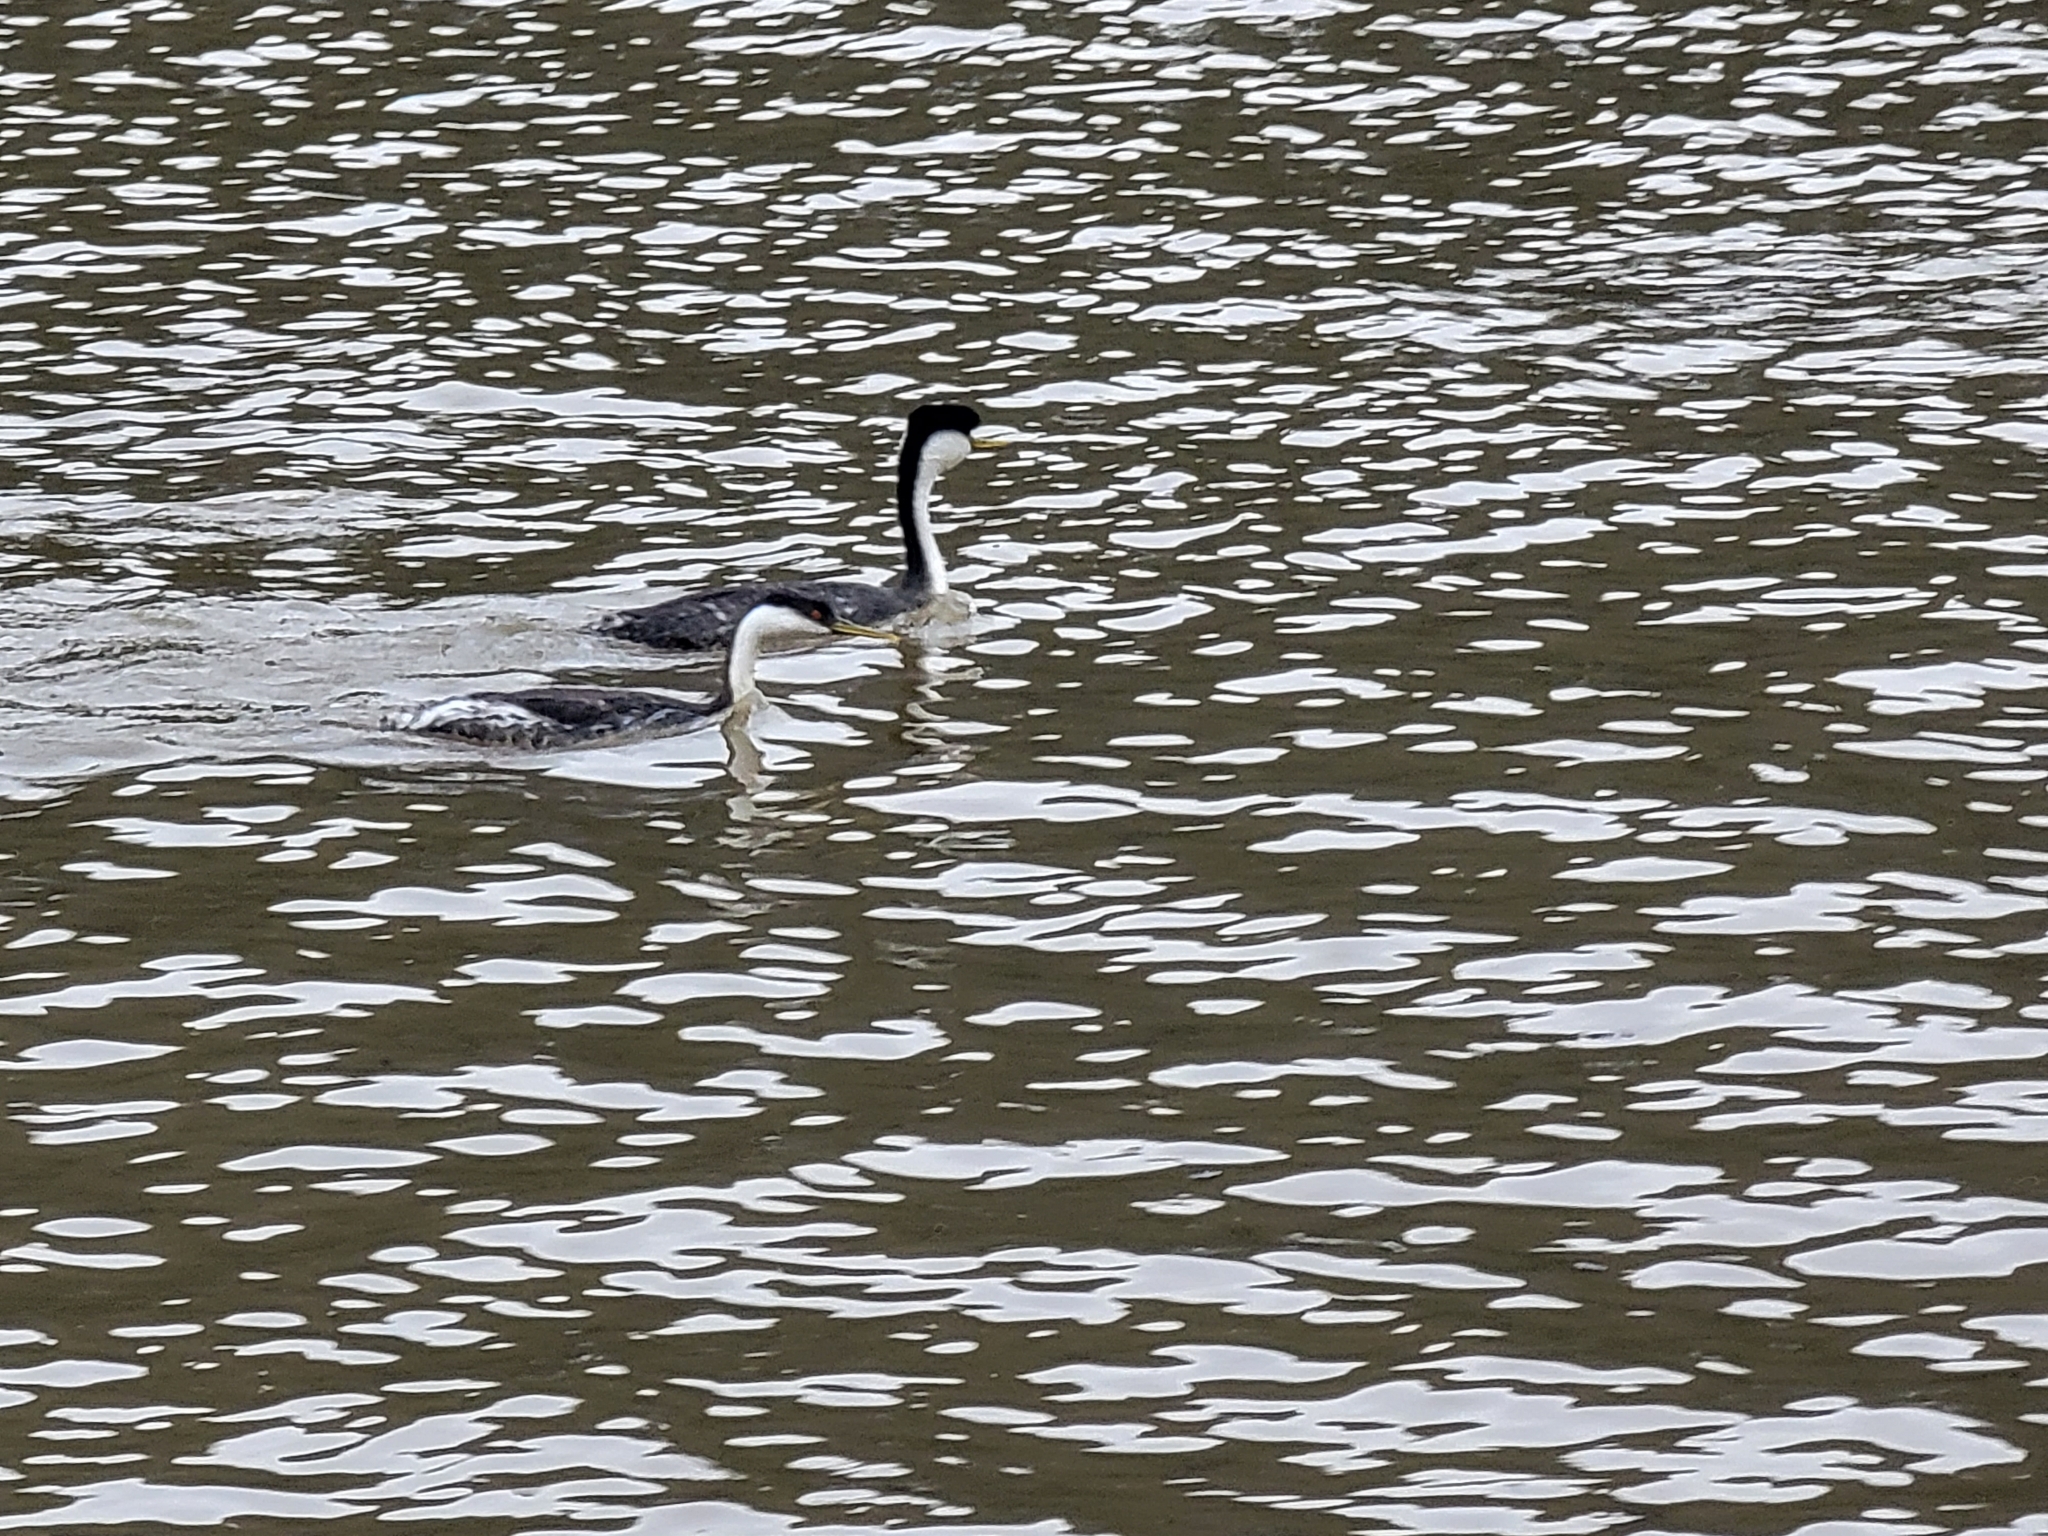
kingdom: Animalia
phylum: Chordata
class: Aves
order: Podicipediformes
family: Podicipedidae
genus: Aechmophorus
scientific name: Aechmophorus occidentalis
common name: Western grebe
